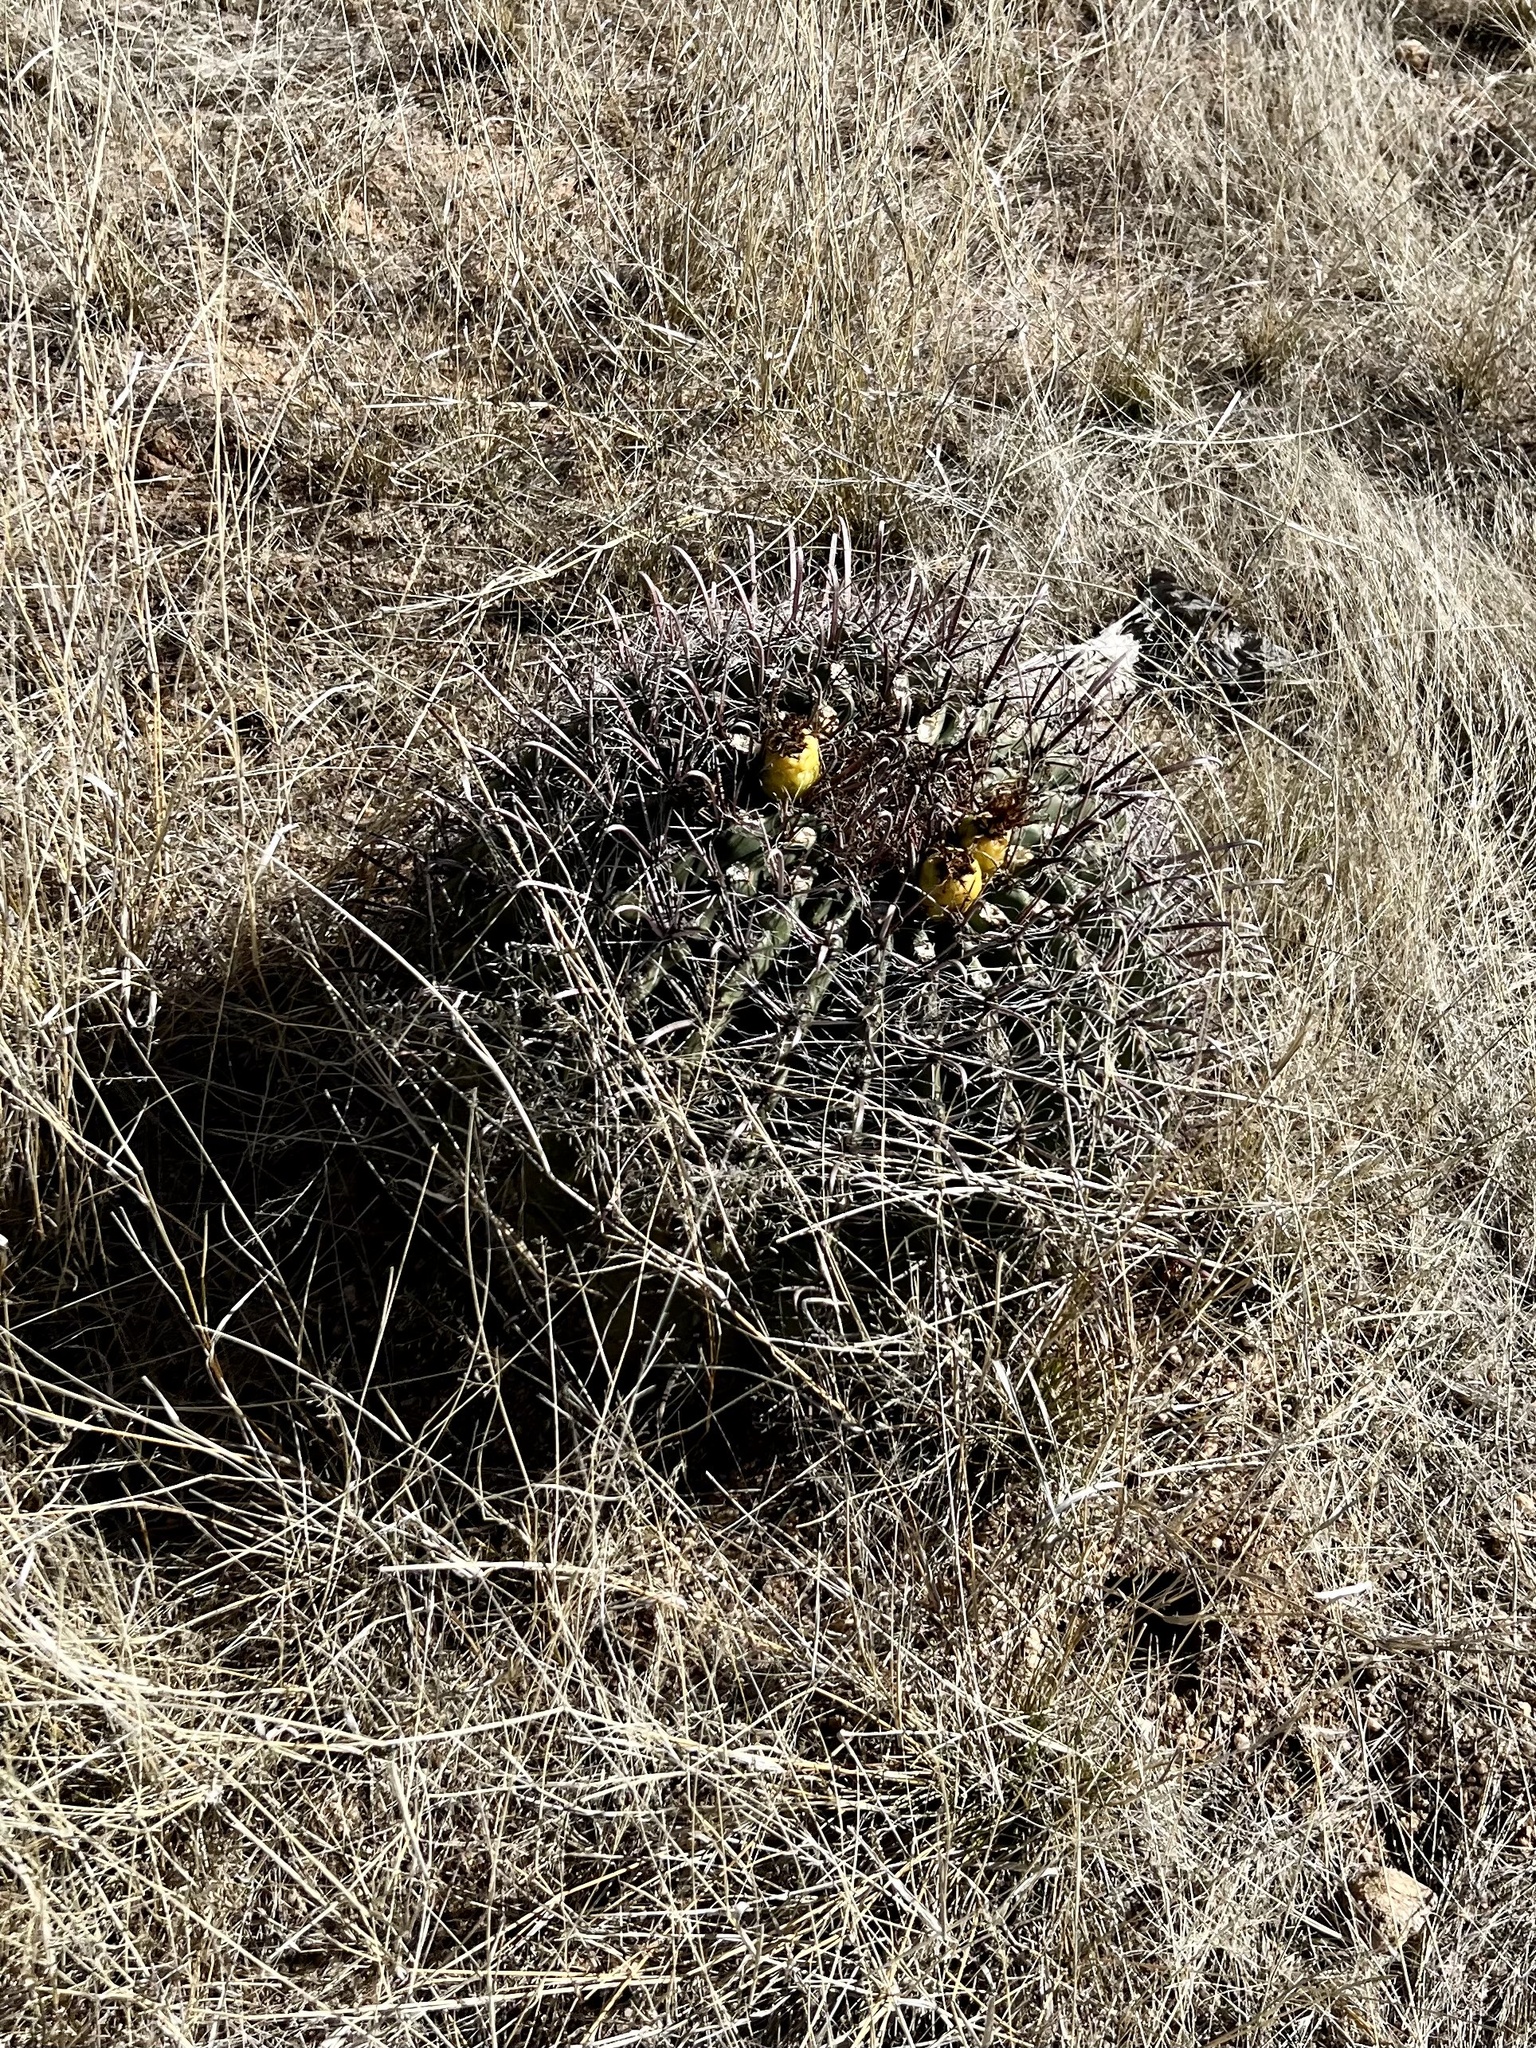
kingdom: Plantae
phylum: Tracheophyta
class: Magnoliopsida
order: Caryophyllales
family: Cactaceae
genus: Ferocactus
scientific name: Ferocactus wislizeni
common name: Candy barrel cactus
